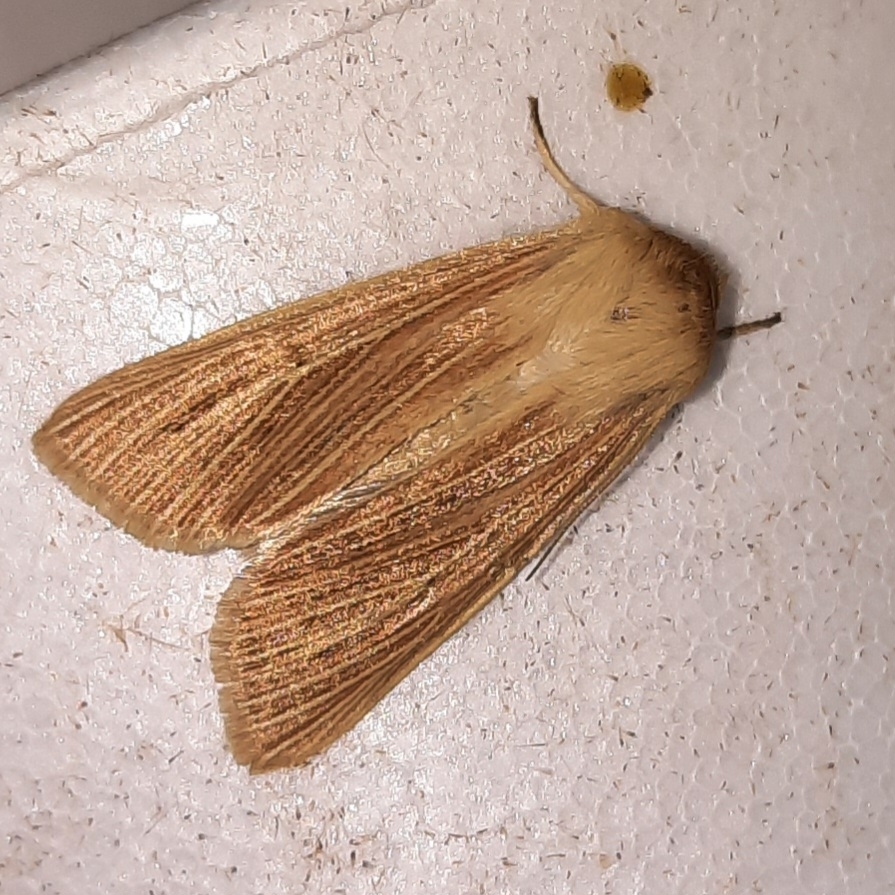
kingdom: Animalia
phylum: Arthropoda
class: Insecta
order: Lepidoptera
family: Noctuidae
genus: Mythimna
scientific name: Mythimna pallens
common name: Common wainscot
